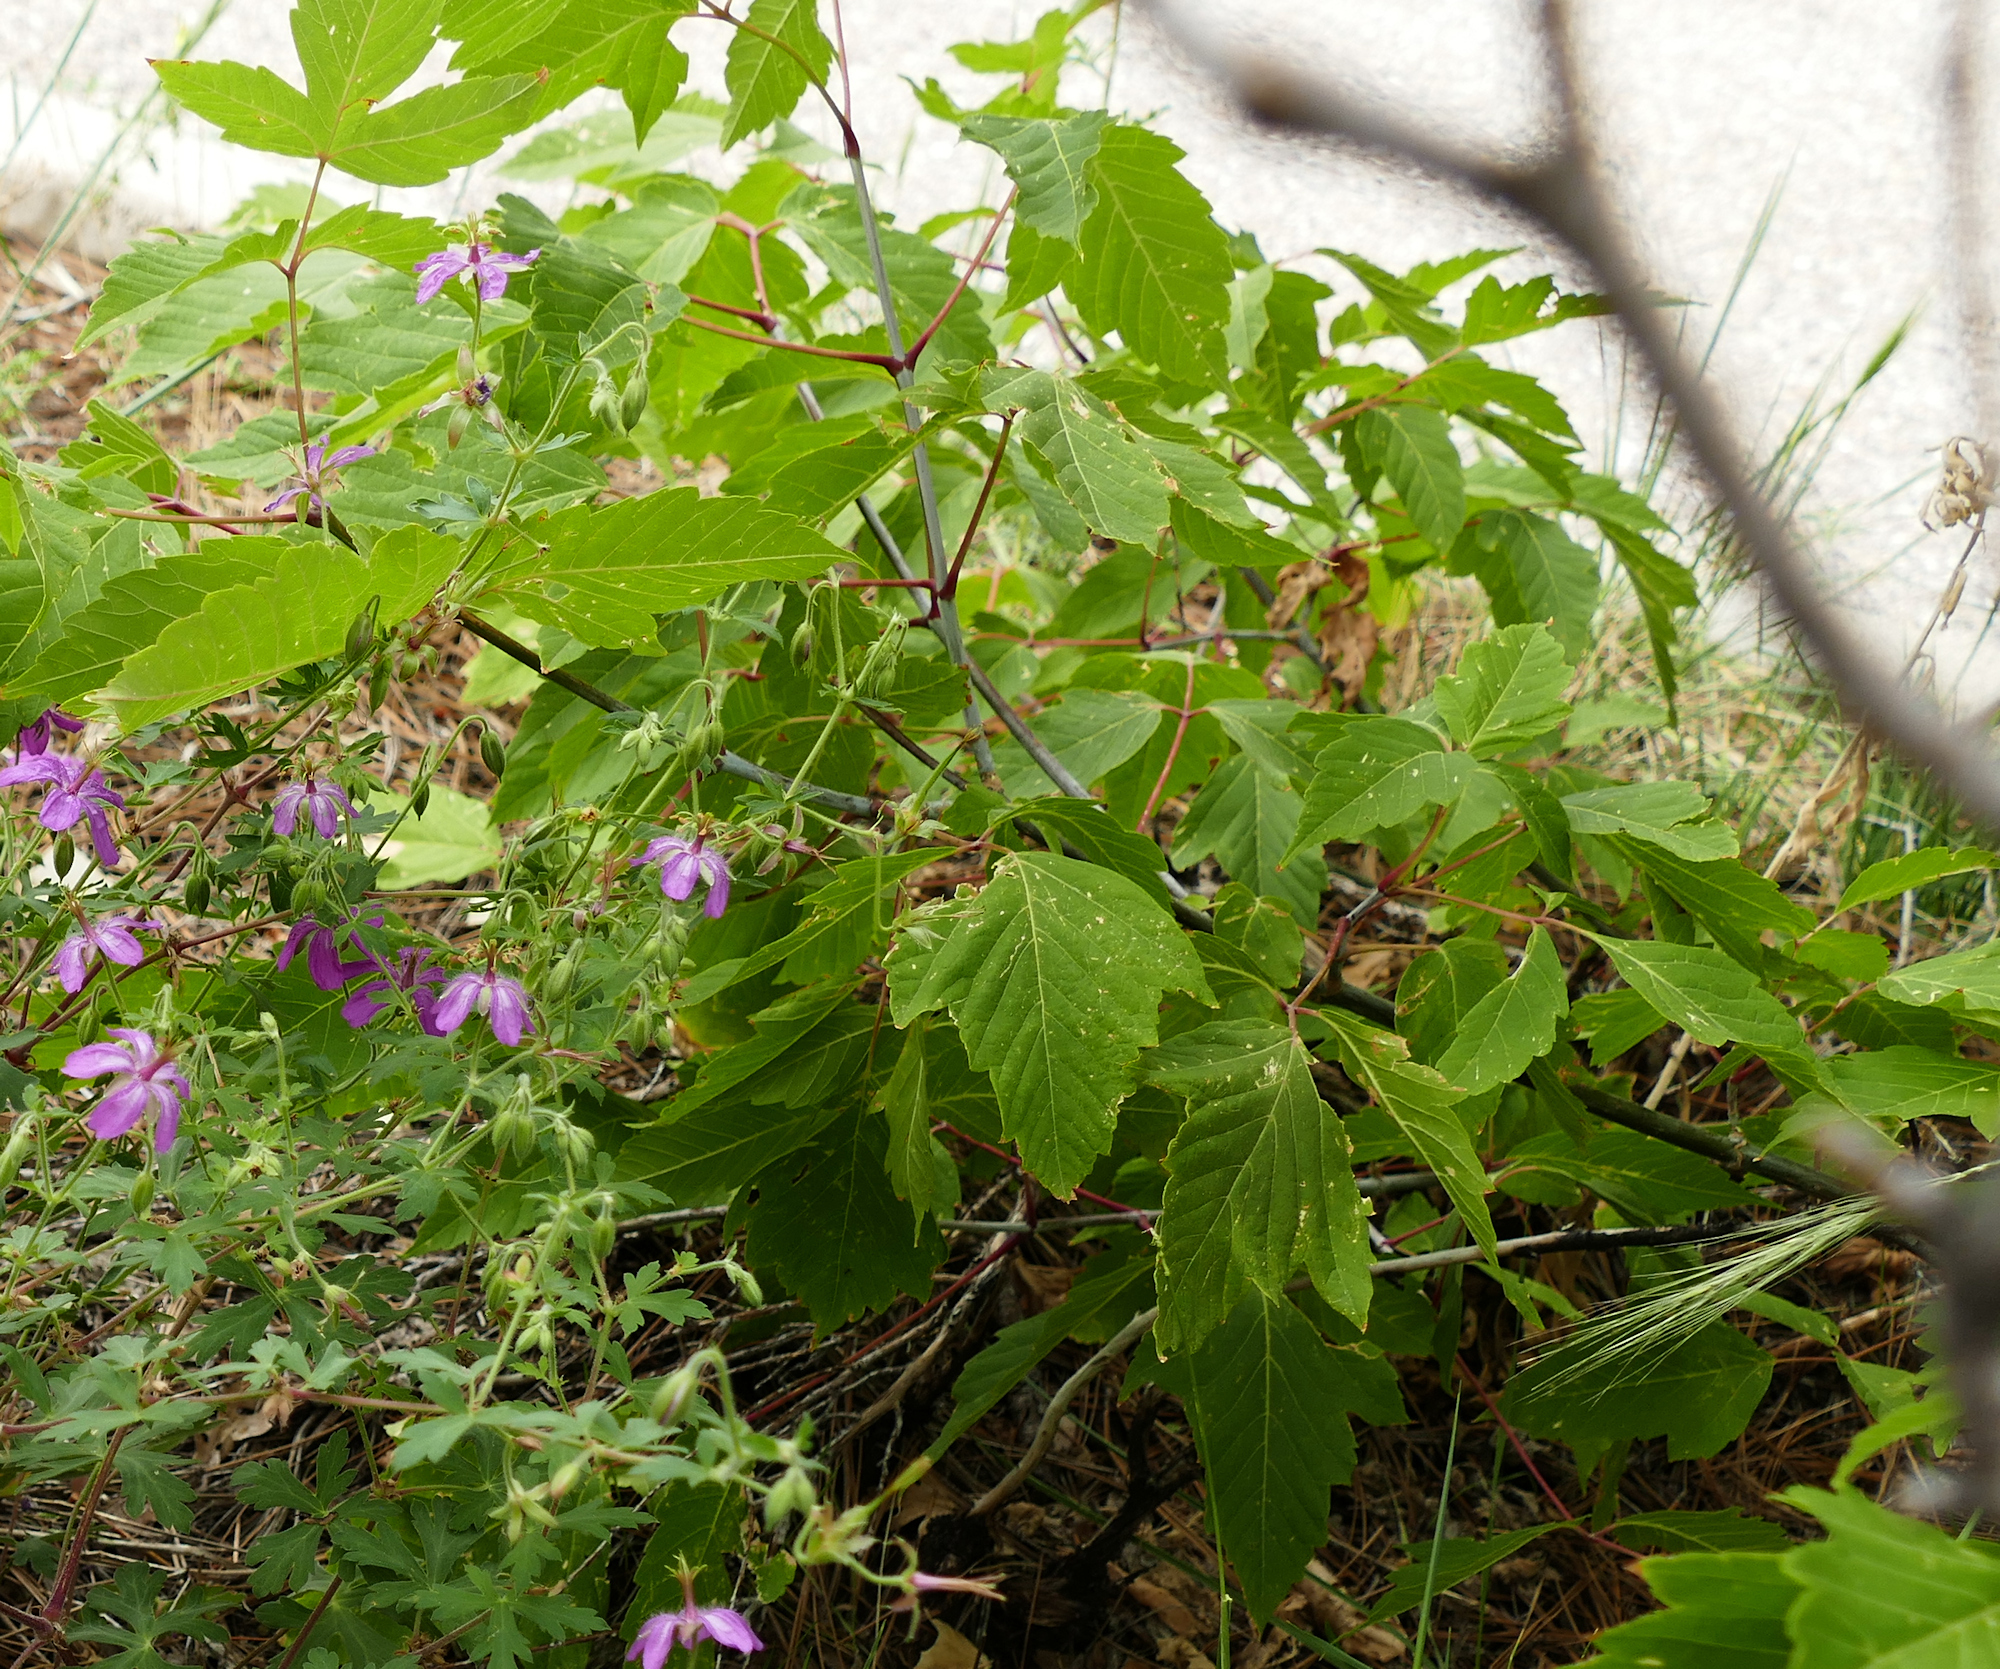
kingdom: Plantae
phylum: Tracheophyta
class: Magnoliopsida
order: Sapindales
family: Sapindaceae
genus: Acer
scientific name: Acer negundo
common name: Ashleaf maple
